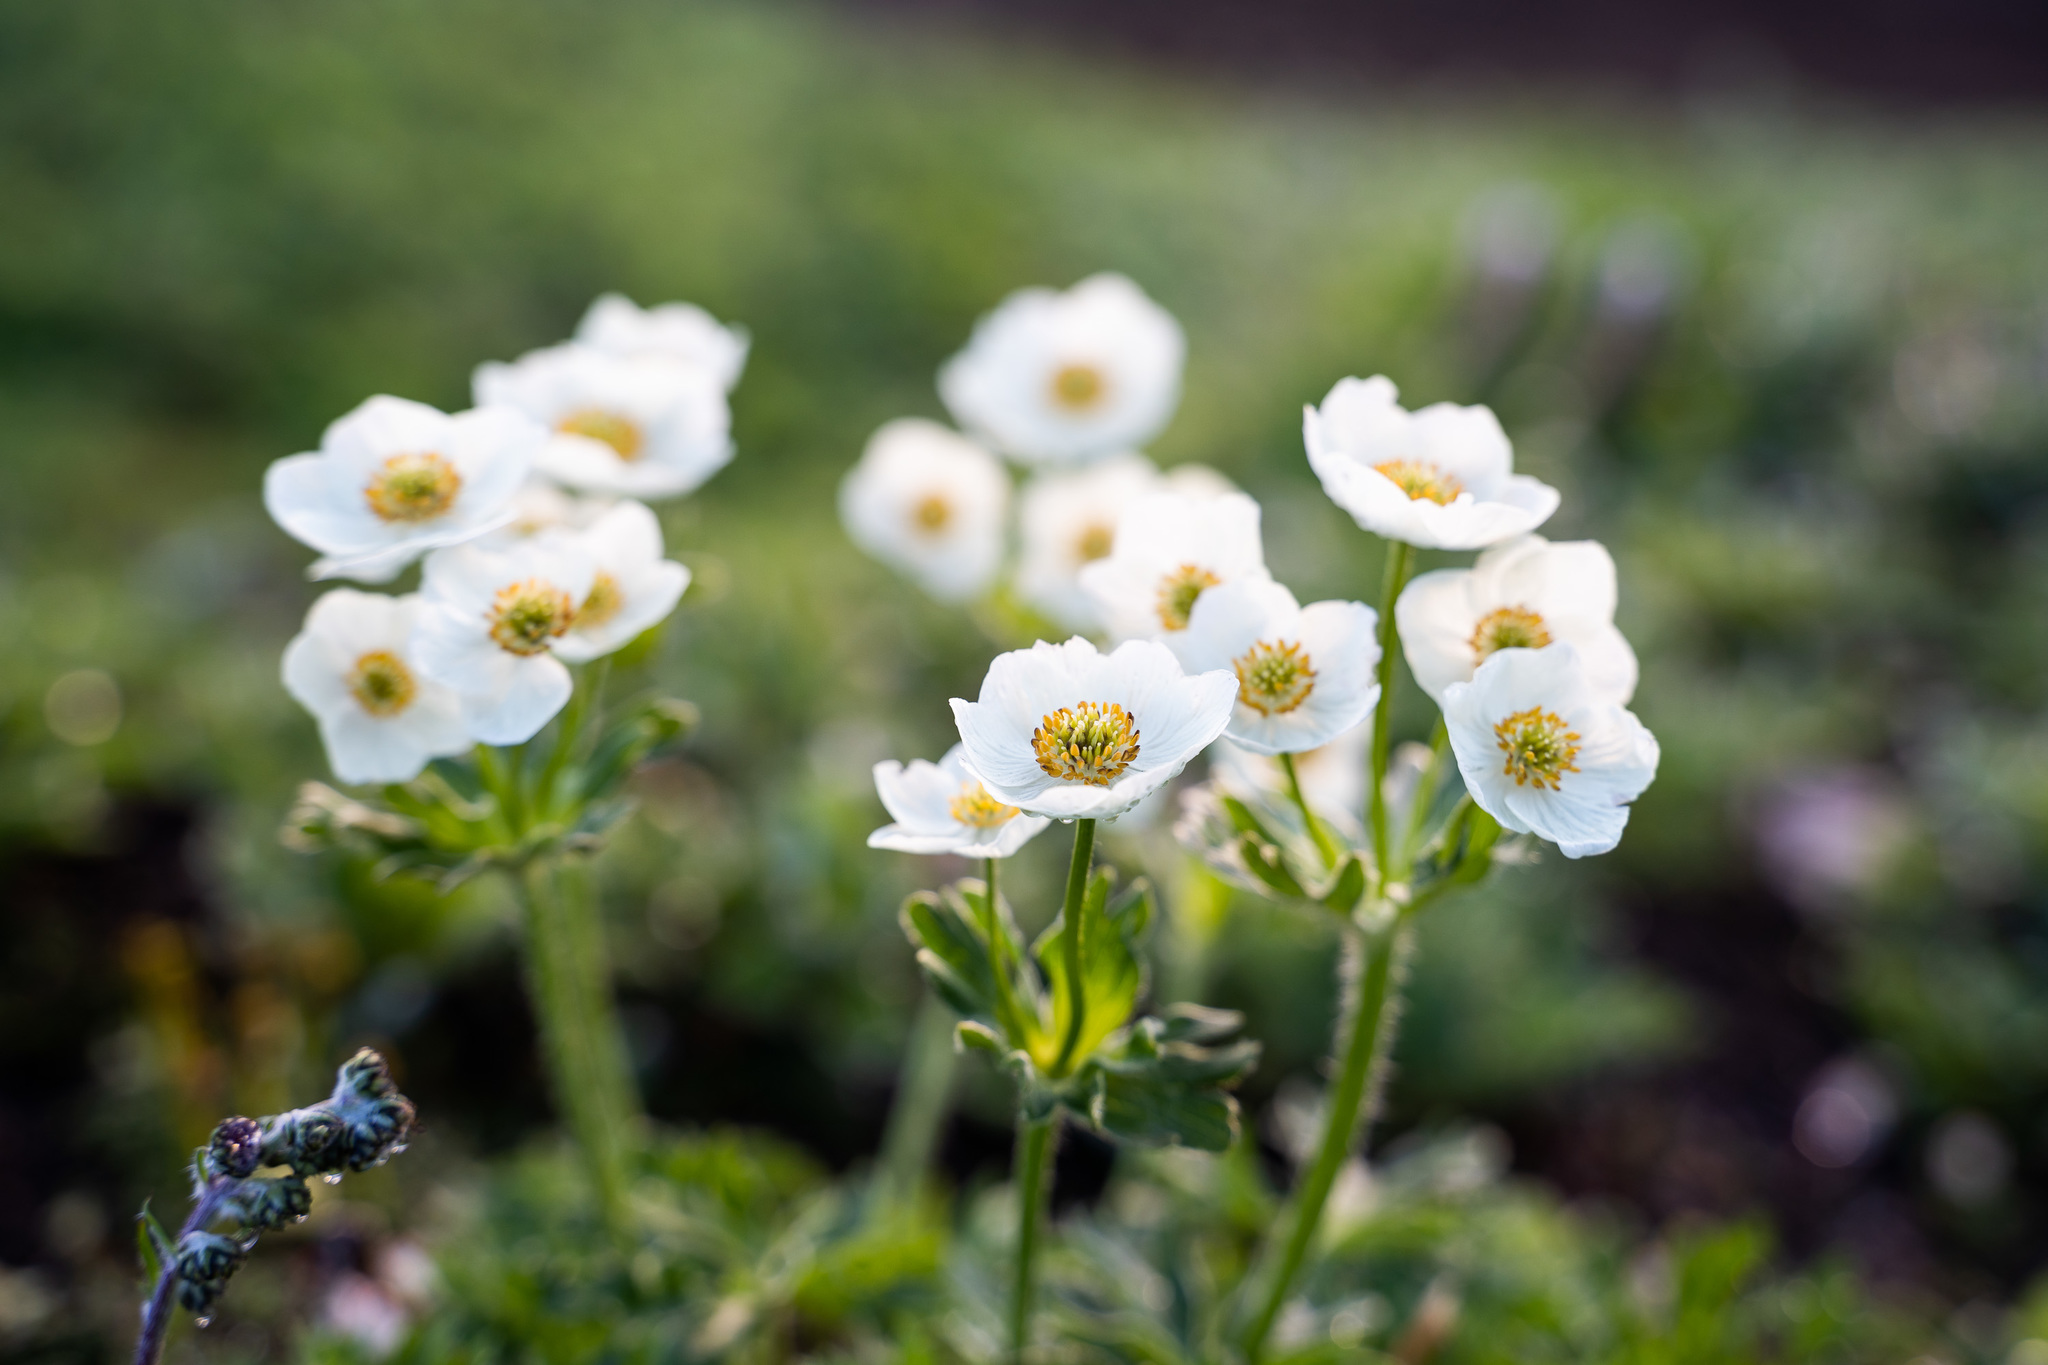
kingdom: Plantae
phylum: Tracheophyta
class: Magnoliopsida
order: Ranunculales
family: Ranunculaceae
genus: Anemonastrum
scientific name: Anemonastrum narcissiflorum
